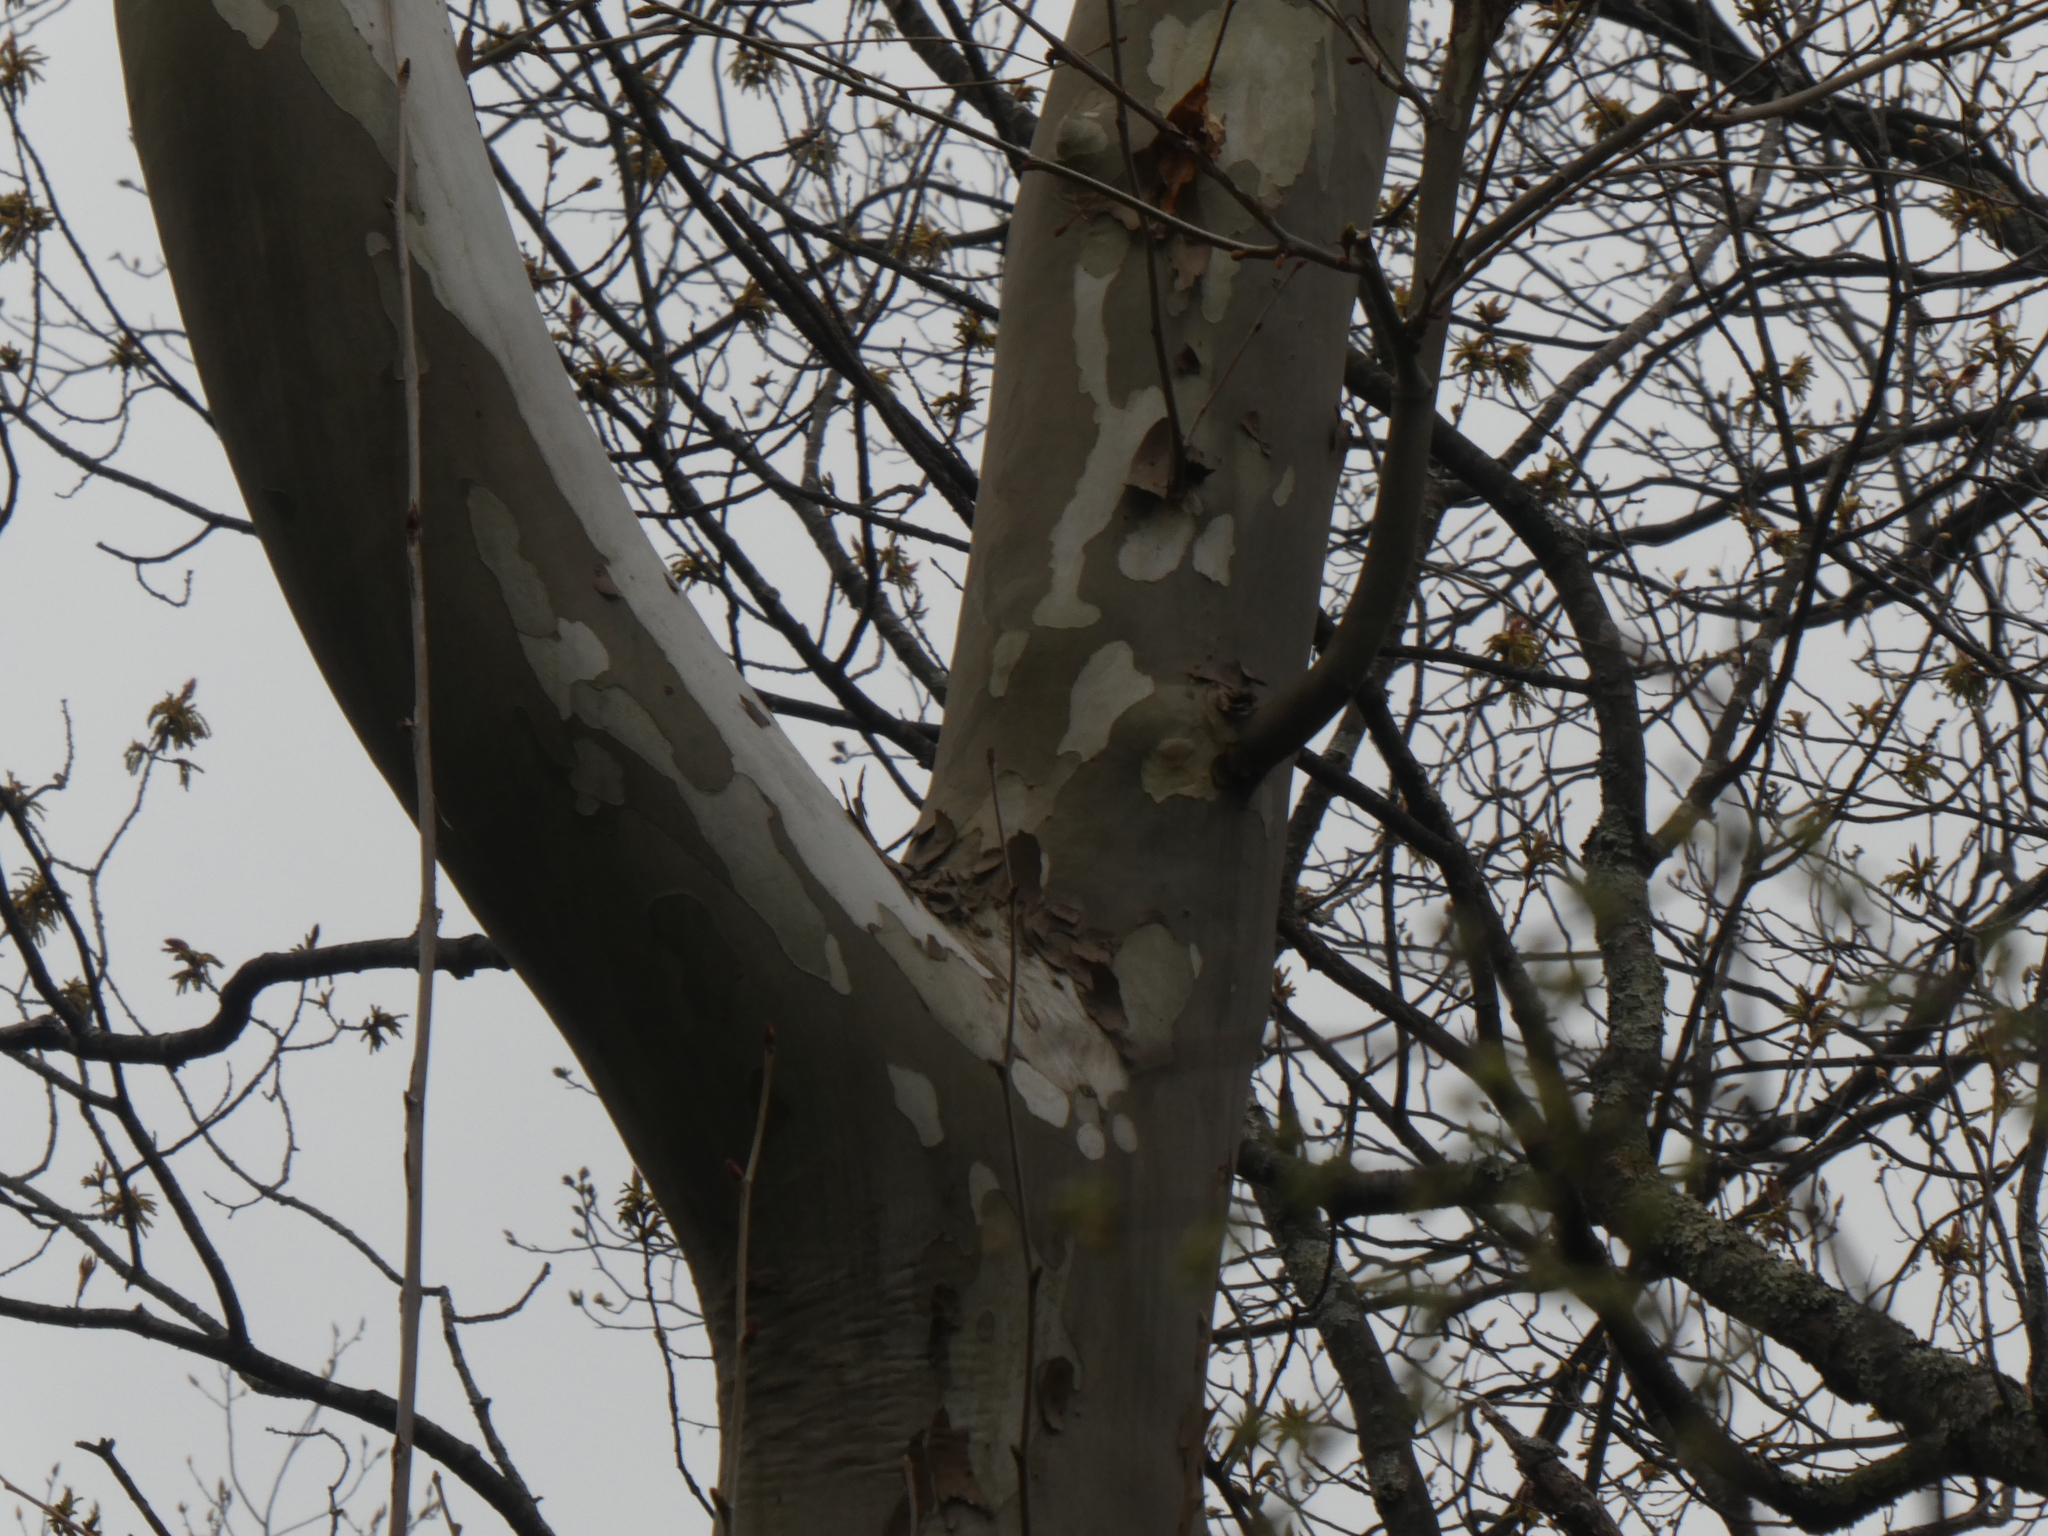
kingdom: Plantae
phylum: Tracheophyta
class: Magnoliopsida
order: Proteales
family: Platanaceae
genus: Platanus
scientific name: Platanus occidentalis
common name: American sycamore
